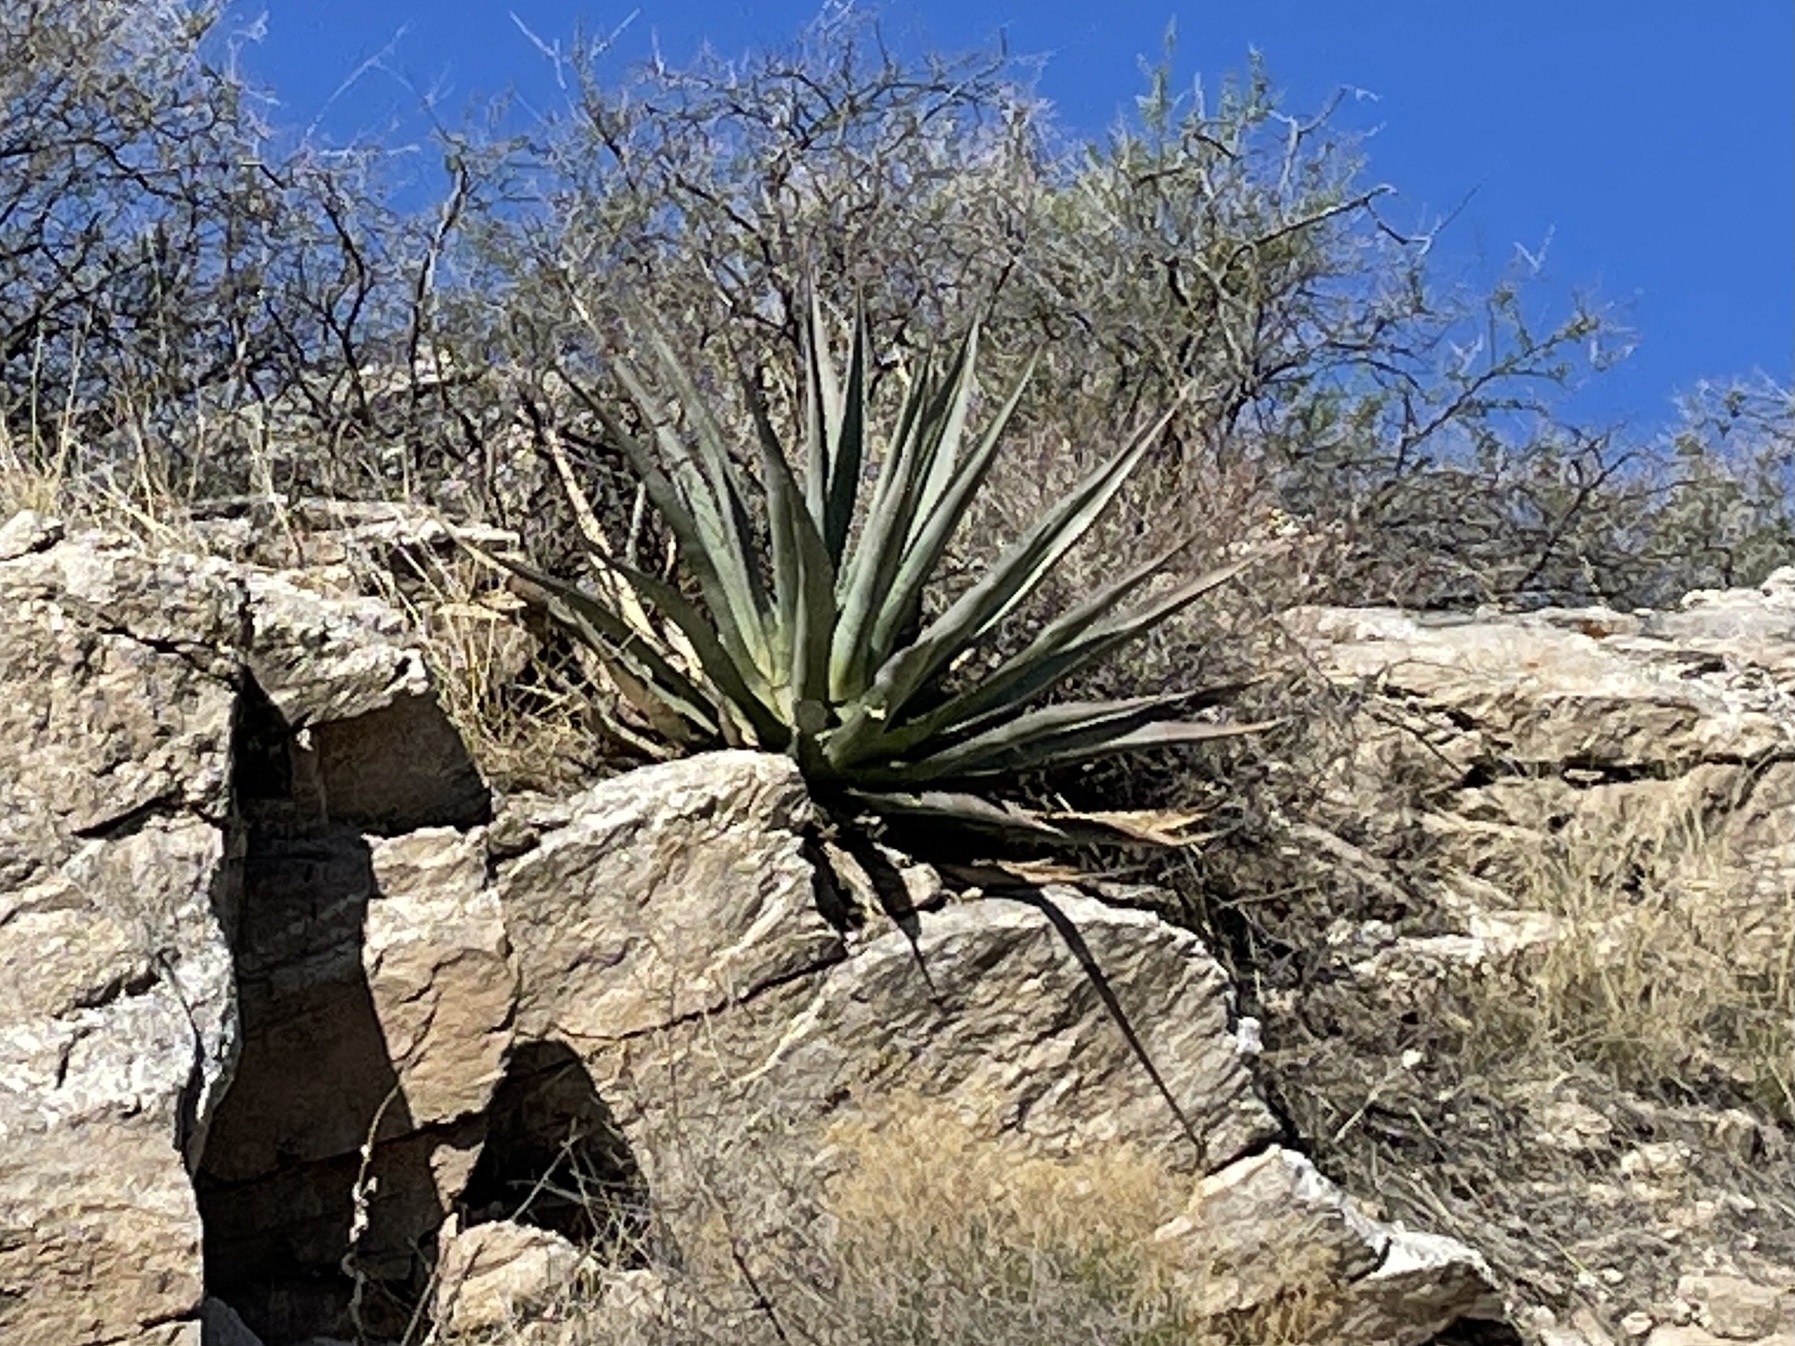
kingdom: Plantae
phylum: Tracheophyta
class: Liliopsida
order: Asparagales
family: Asparagaceae
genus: Agave
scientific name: Agave palmeri
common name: Palmer agave
